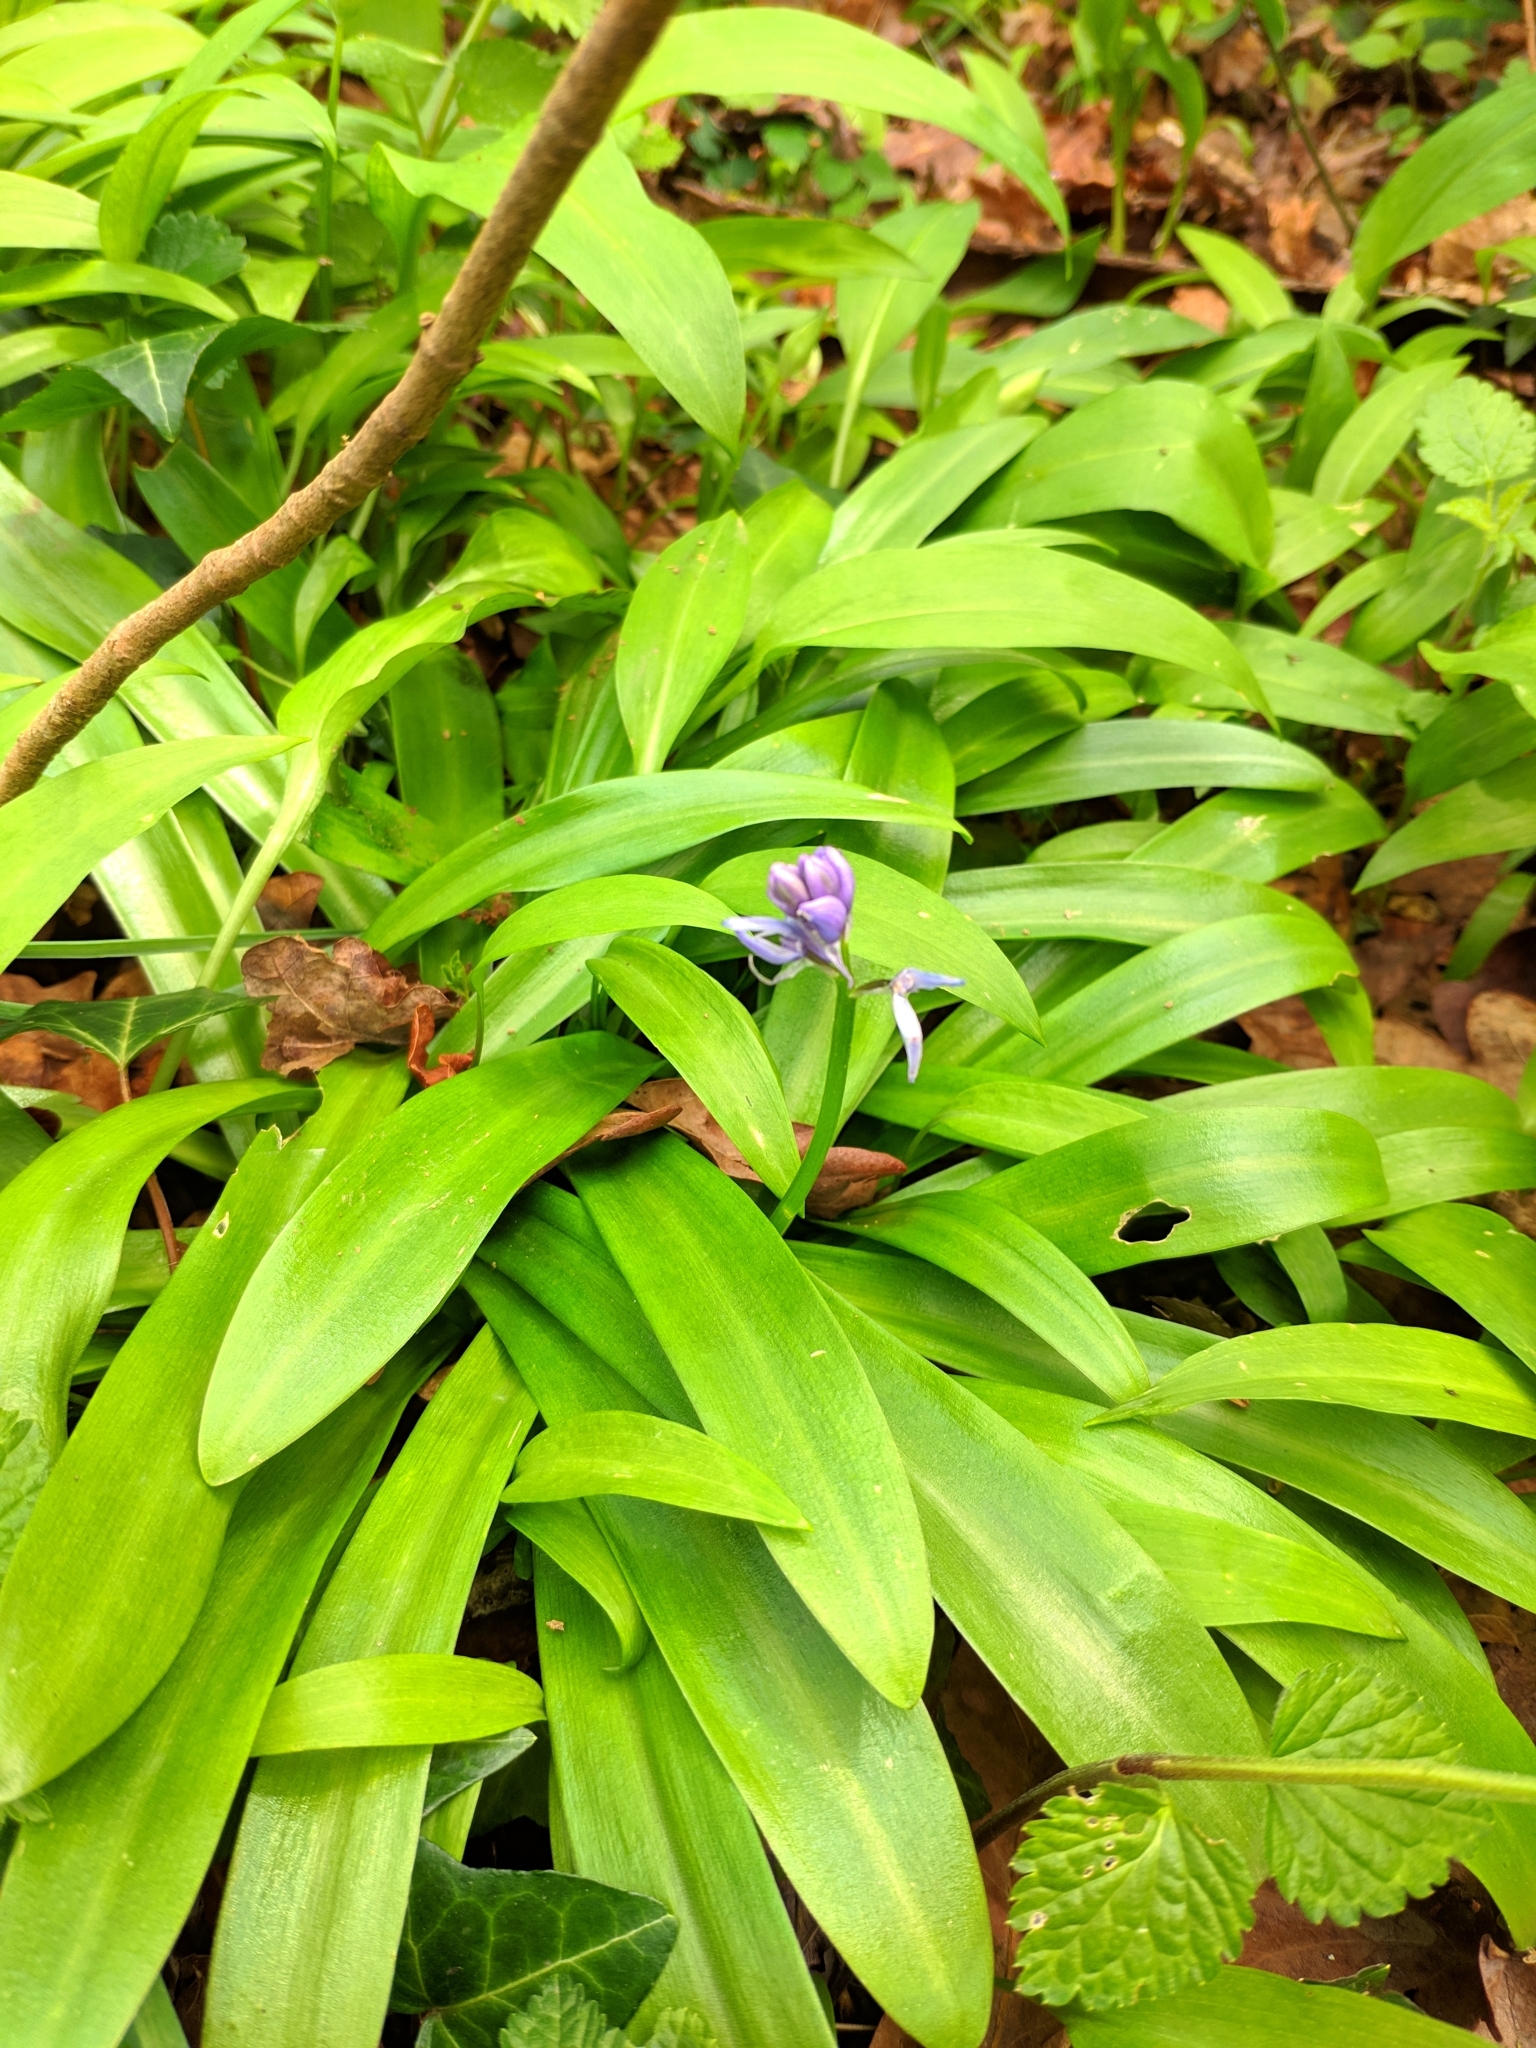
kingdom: Plantae
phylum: Tracheophyta
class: Liliopsida
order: Asparagales
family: Asparagaceae
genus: Scilla
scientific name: Scilla lilio-hyacinthus
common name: Pyrenean squill
